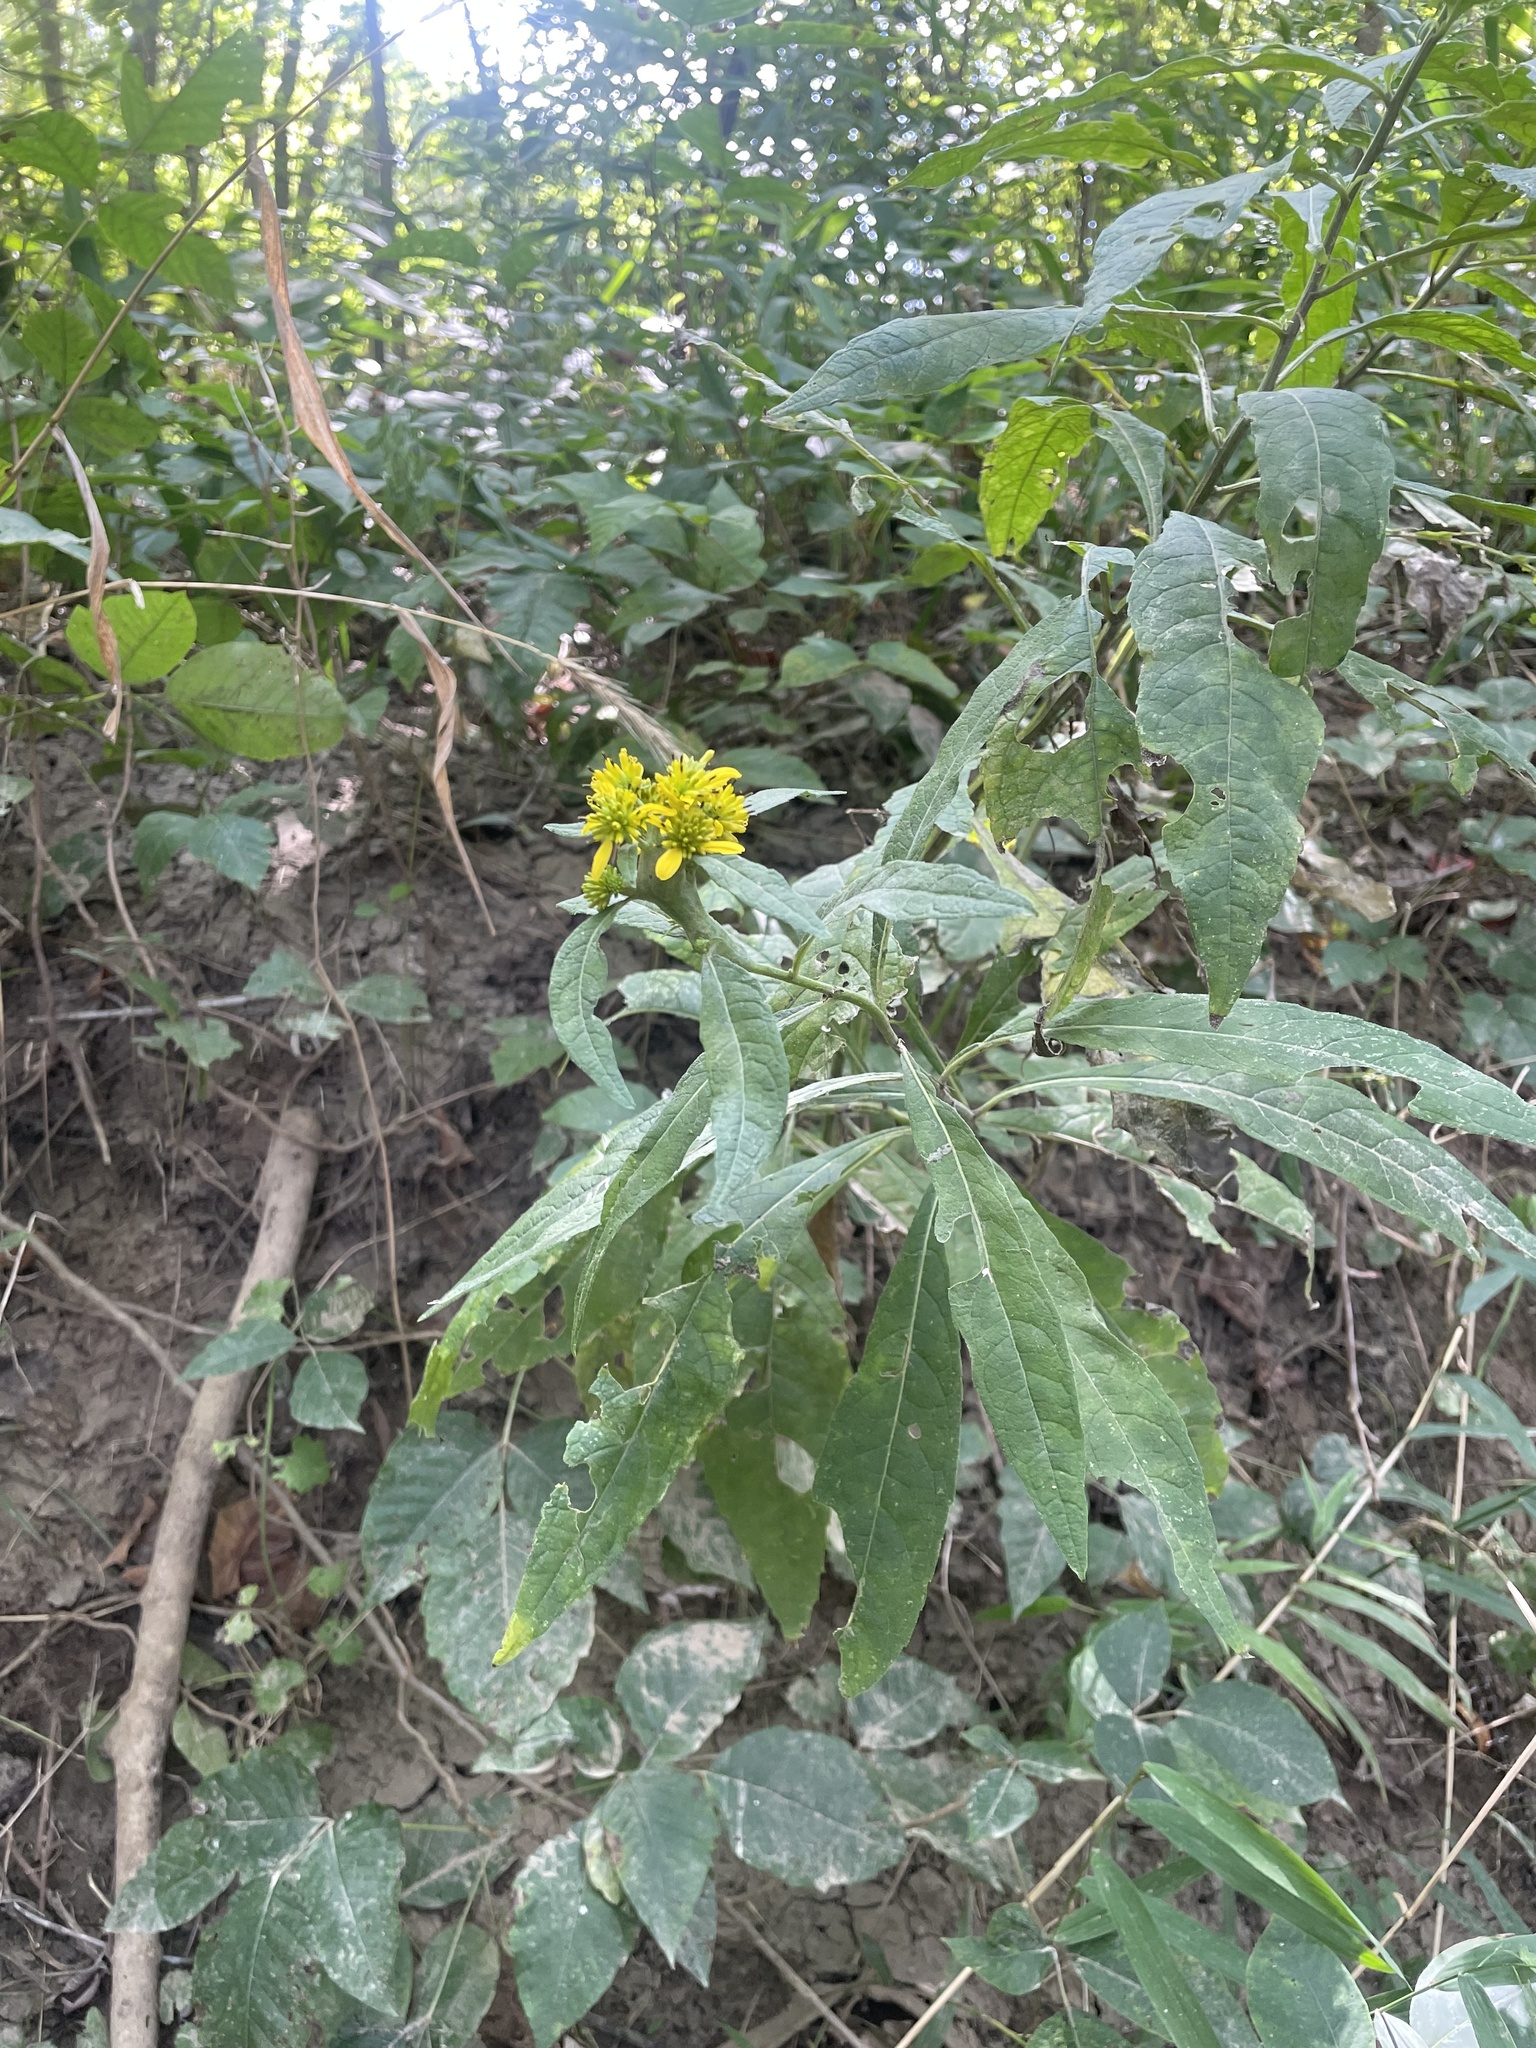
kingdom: Plantae
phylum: Tracheophyta
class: Magnoliopsida
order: Asterales
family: Asteraceae
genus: Verbesina
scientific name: Verbesina alternifolia
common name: Wingstem
